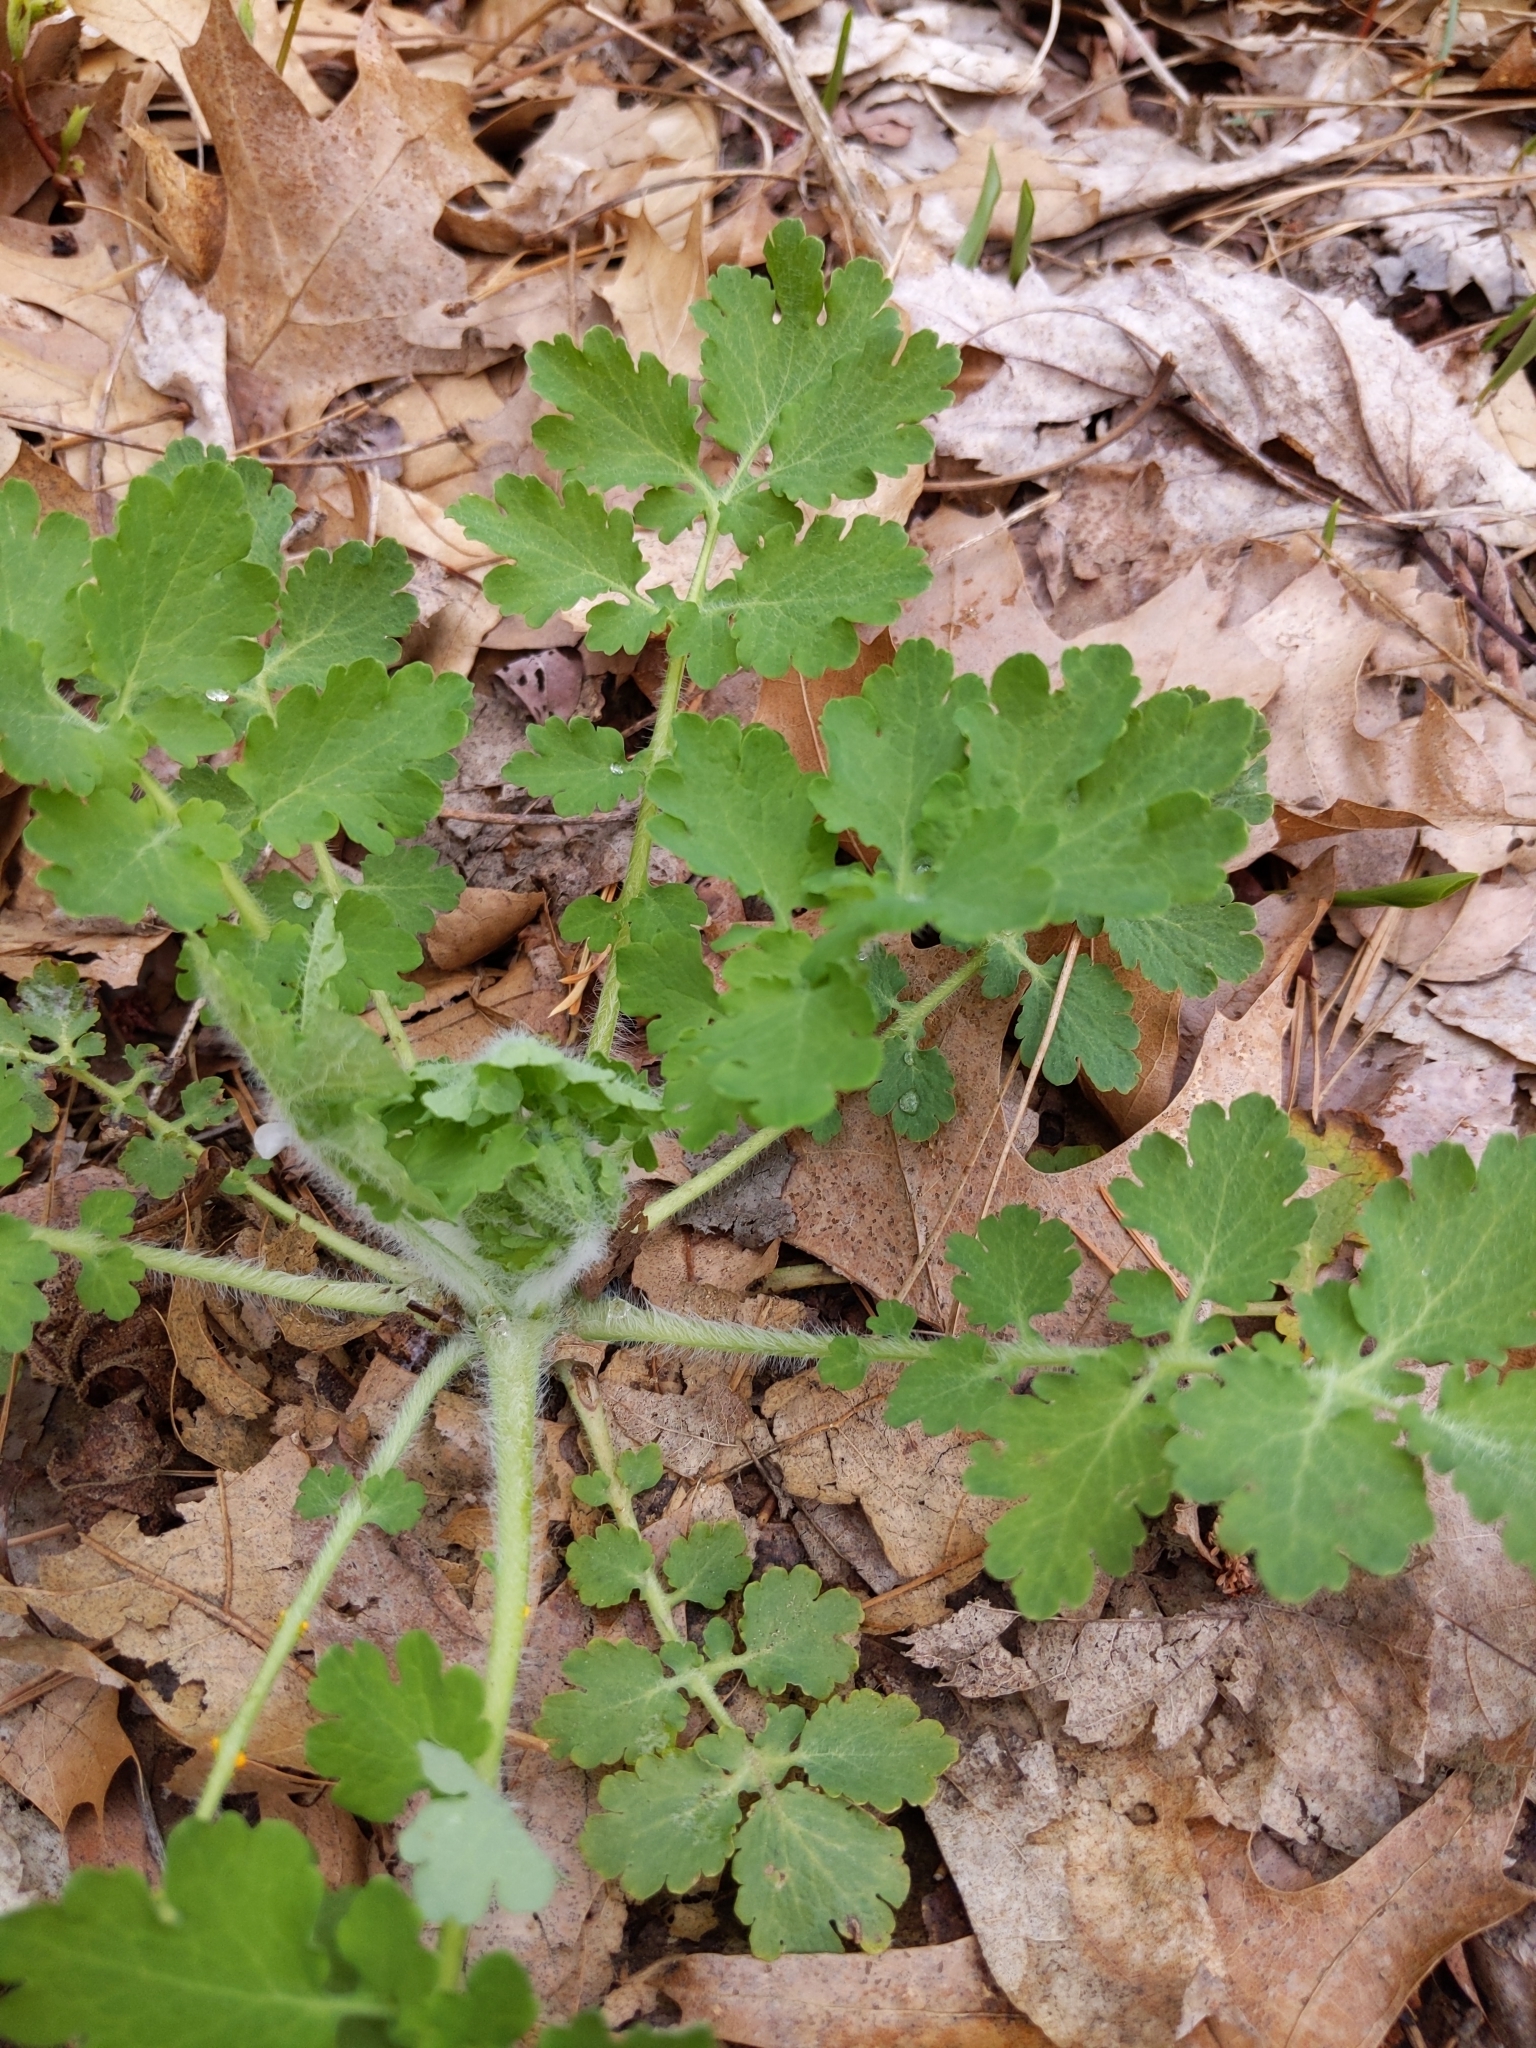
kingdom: Plantae
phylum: Tracheophyta
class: Magnoliopsida
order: Ranunculales
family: Papaveraceae
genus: Chelidonium
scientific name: Chelidonium majus
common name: Greater celandine
